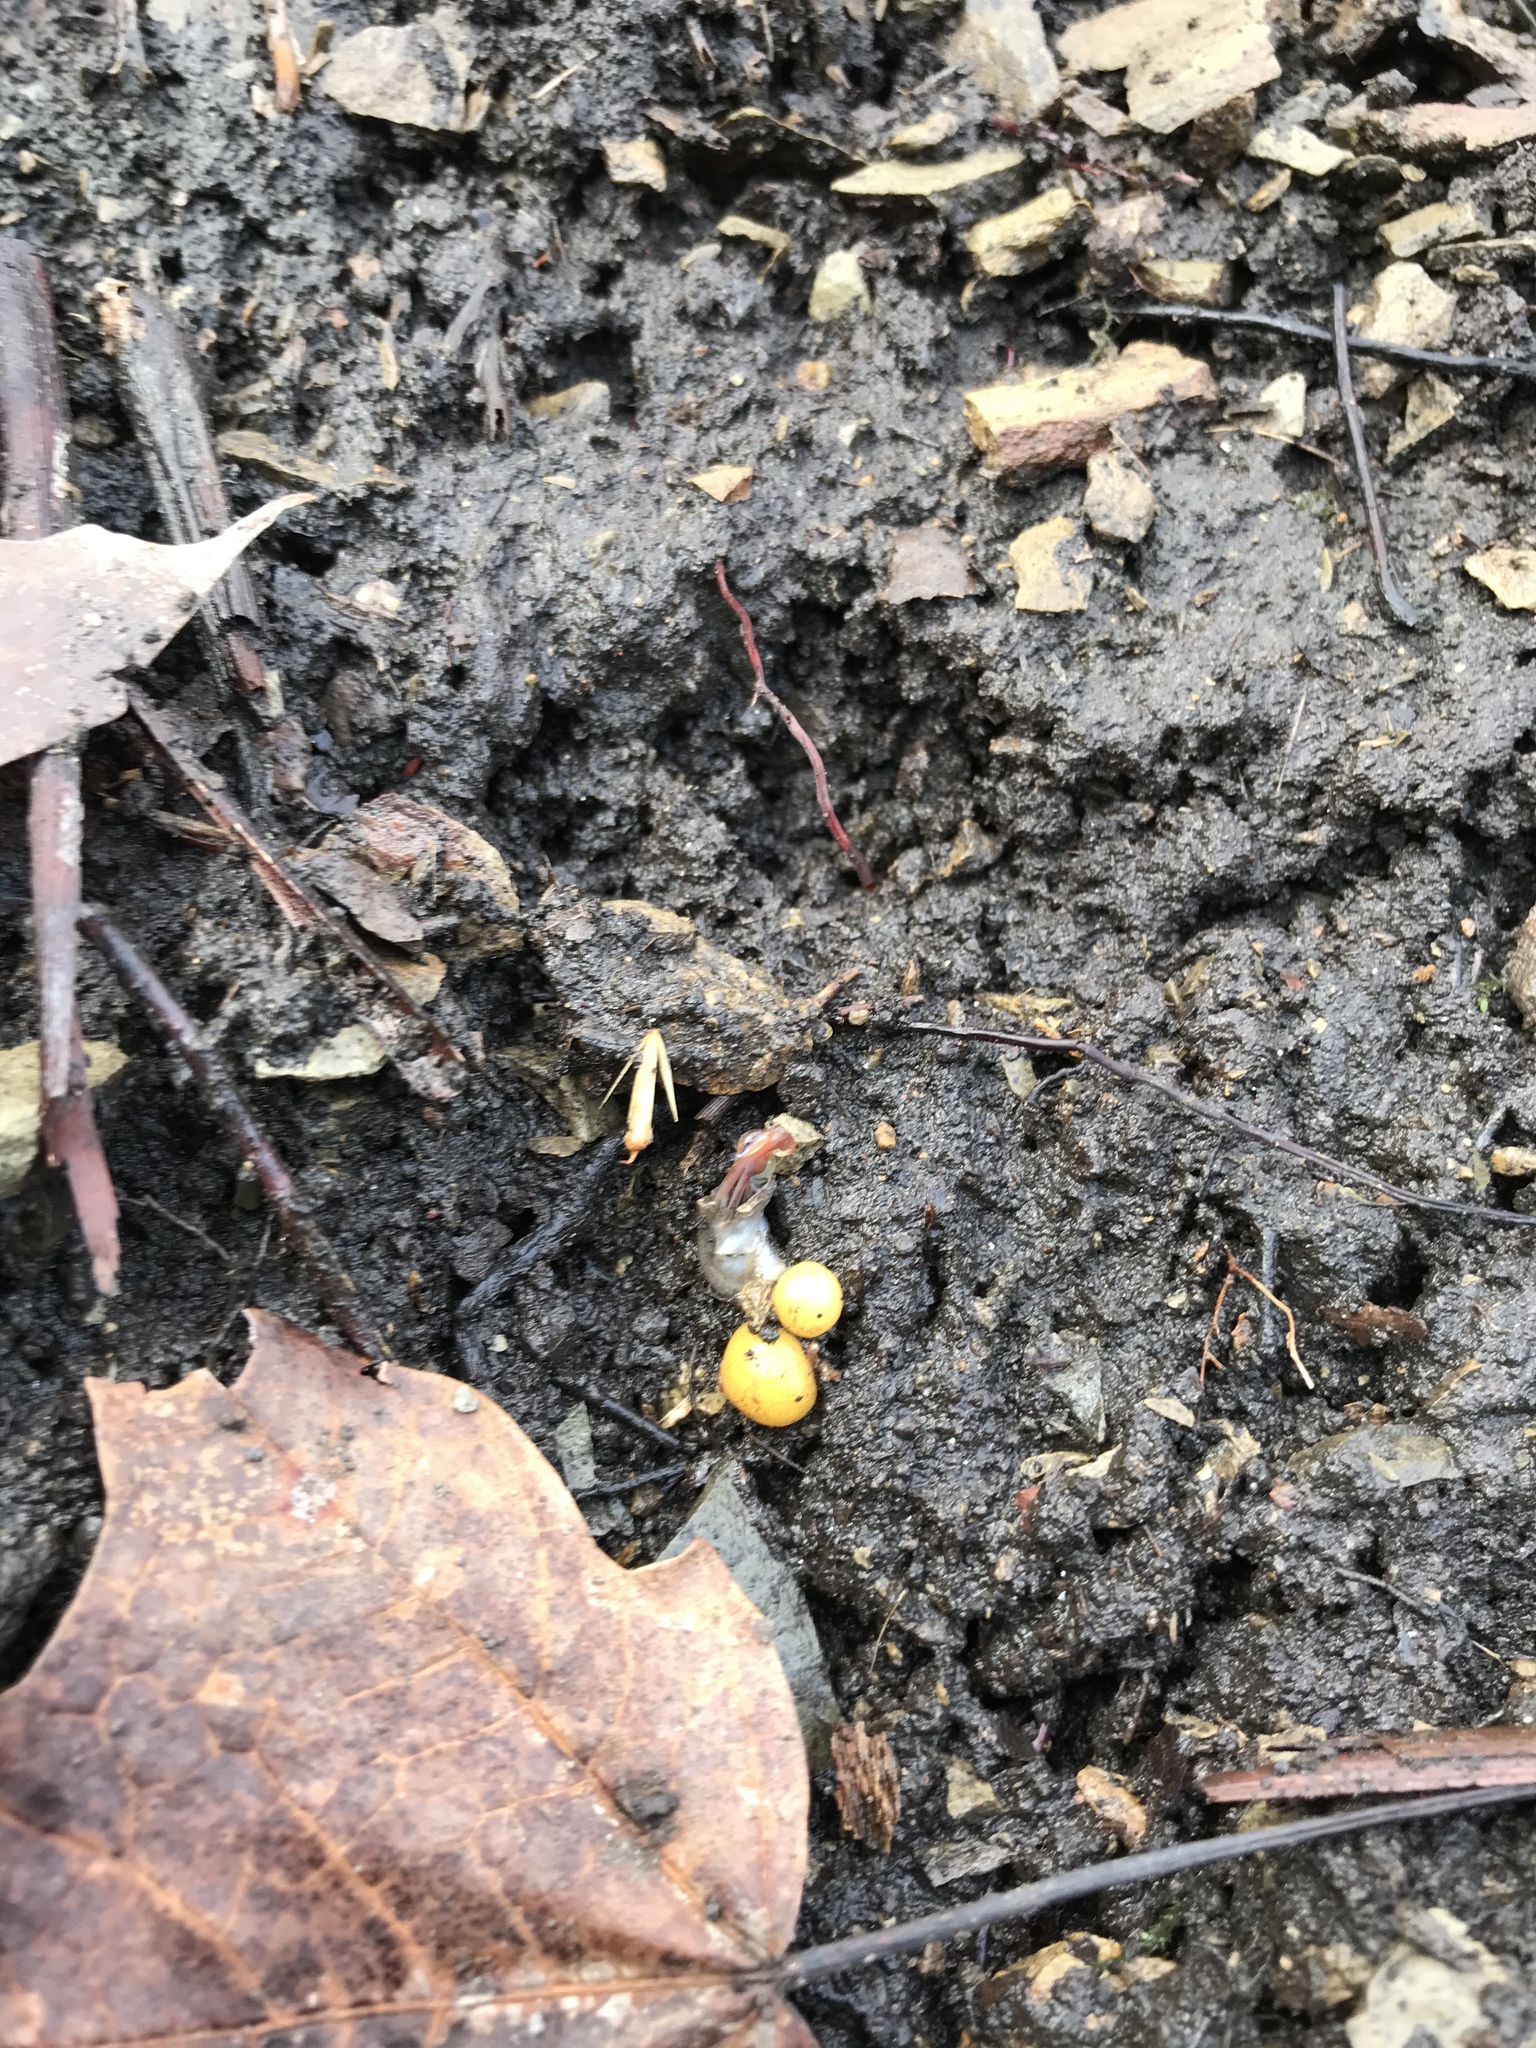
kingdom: Plantae
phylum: Tracheophyta
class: Magnoliopsida
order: Ranunculales
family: Papaveraceae
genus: Dicentra
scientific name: Dicentra canadensis
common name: Squirrel-corn
